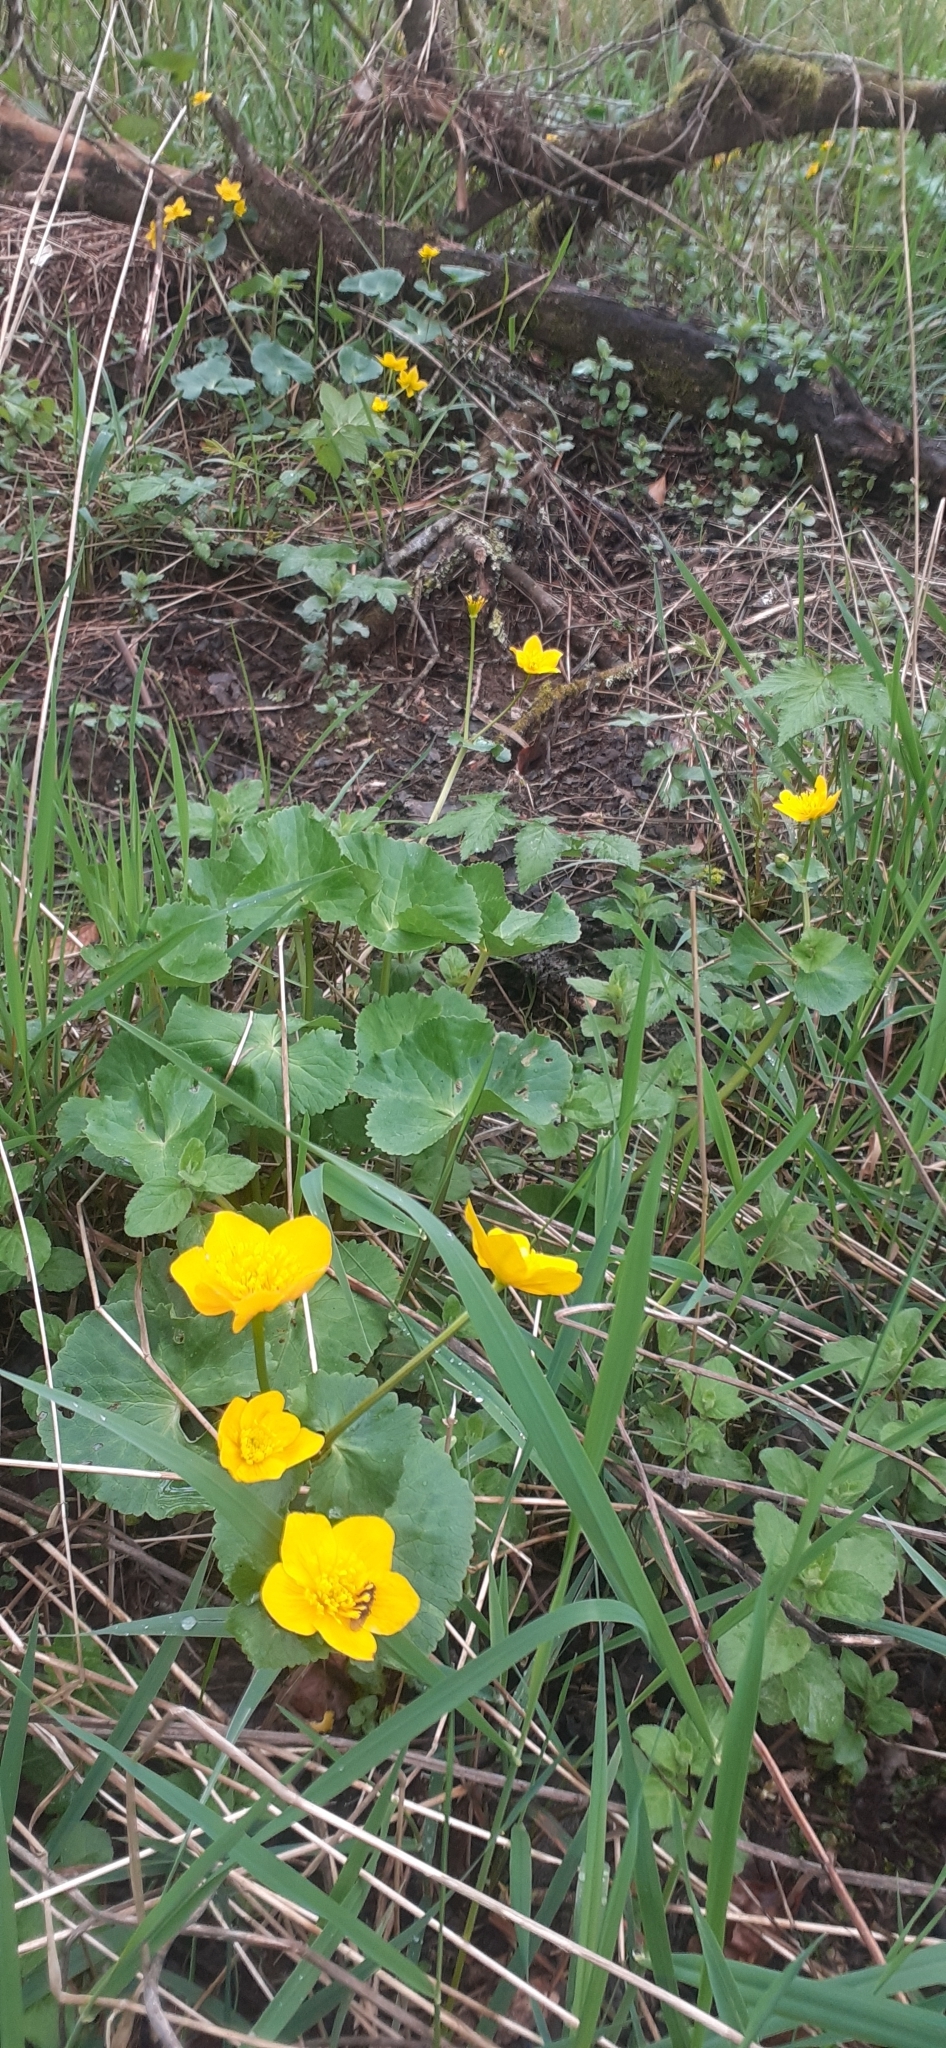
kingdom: Plantae
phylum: Tracheophyta
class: Magnoliopsida
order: Ranunculales
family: Ranunculaceae
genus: Caltha
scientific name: Caltha palustris
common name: Marsh marigold
